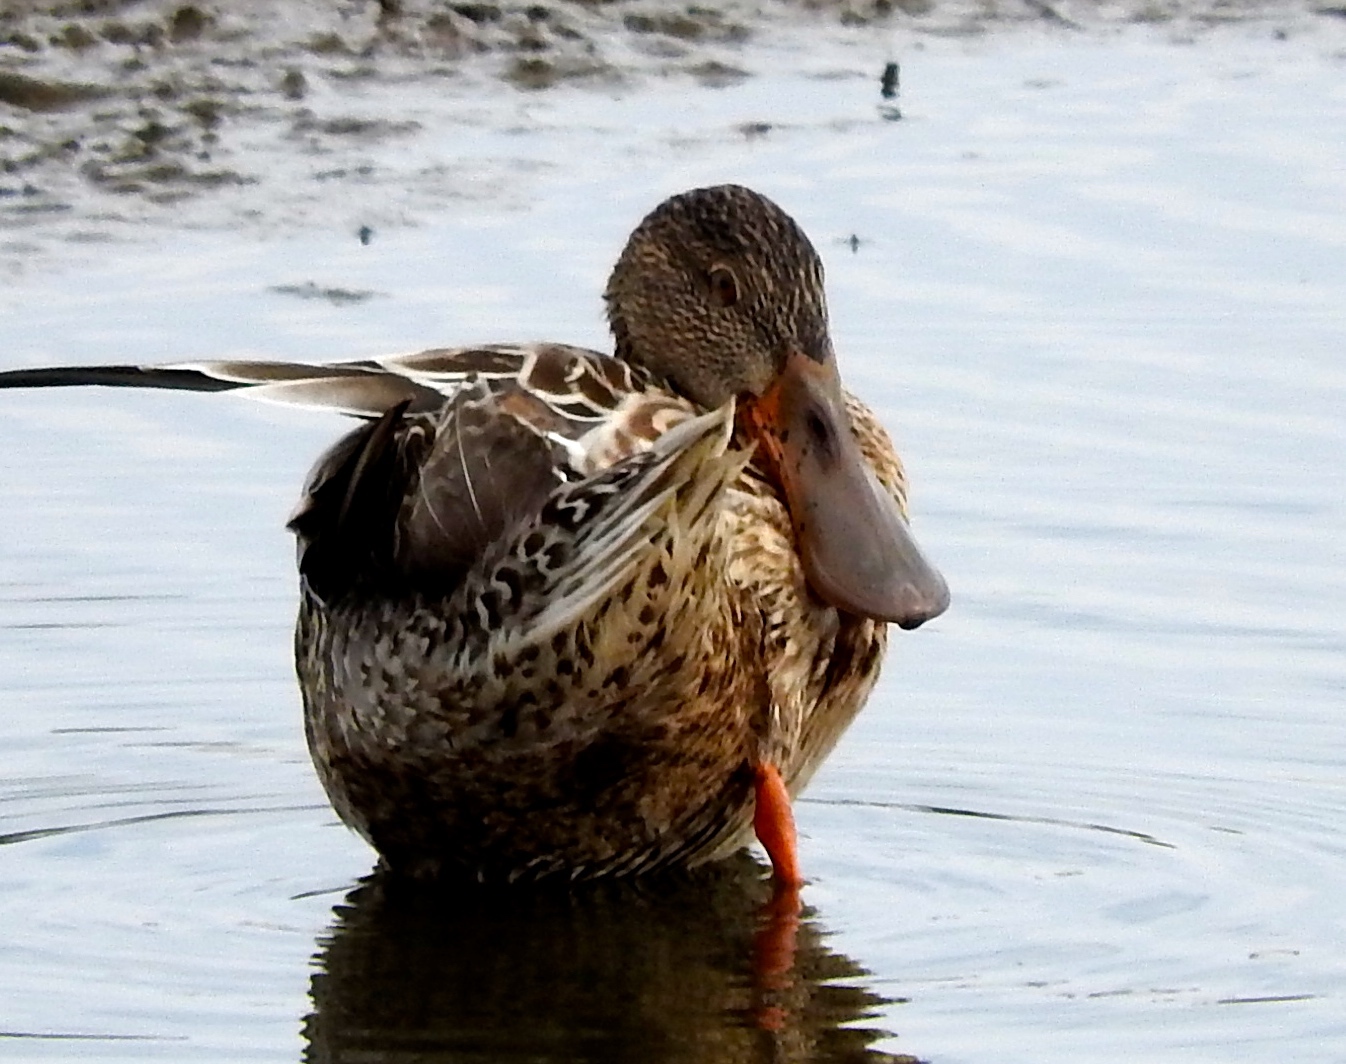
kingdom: Animalia
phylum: Chordata
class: Aves
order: Anseriformes
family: Anatidae
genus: Spatula
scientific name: Spatula clypeata
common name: Northern shoveler
